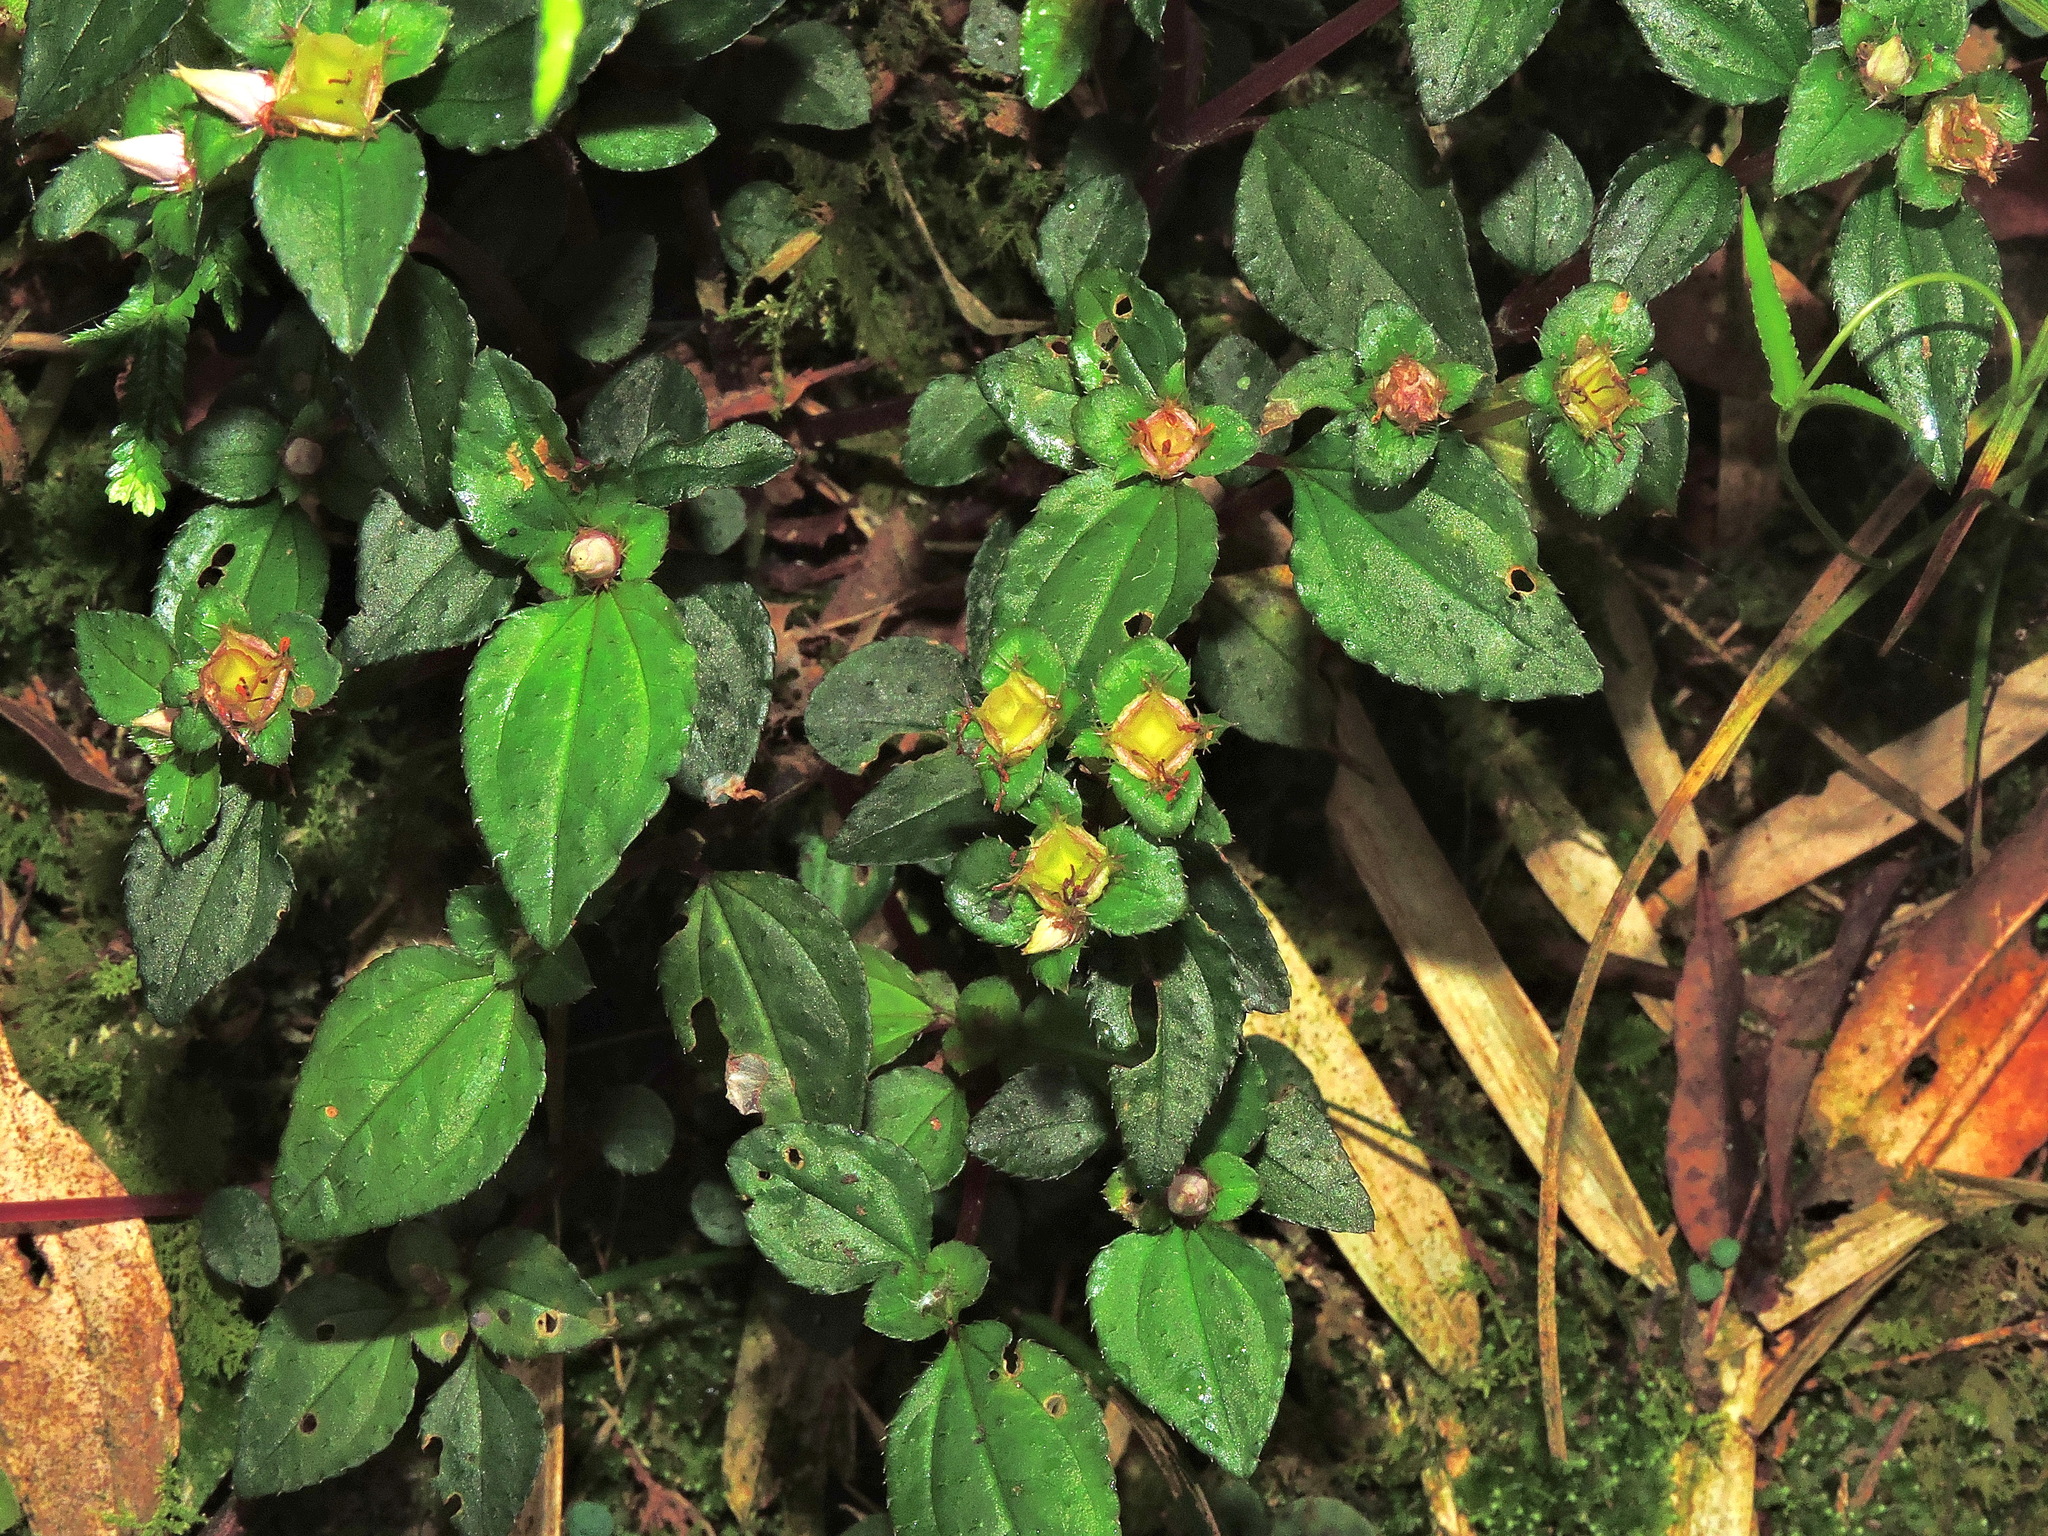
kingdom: Plantae
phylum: Tracheophyta
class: Magnoliopsida
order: Myrtales
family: Melastomataceae
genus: Sarcopyramis
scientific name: Sarcopyramis bodinieri
